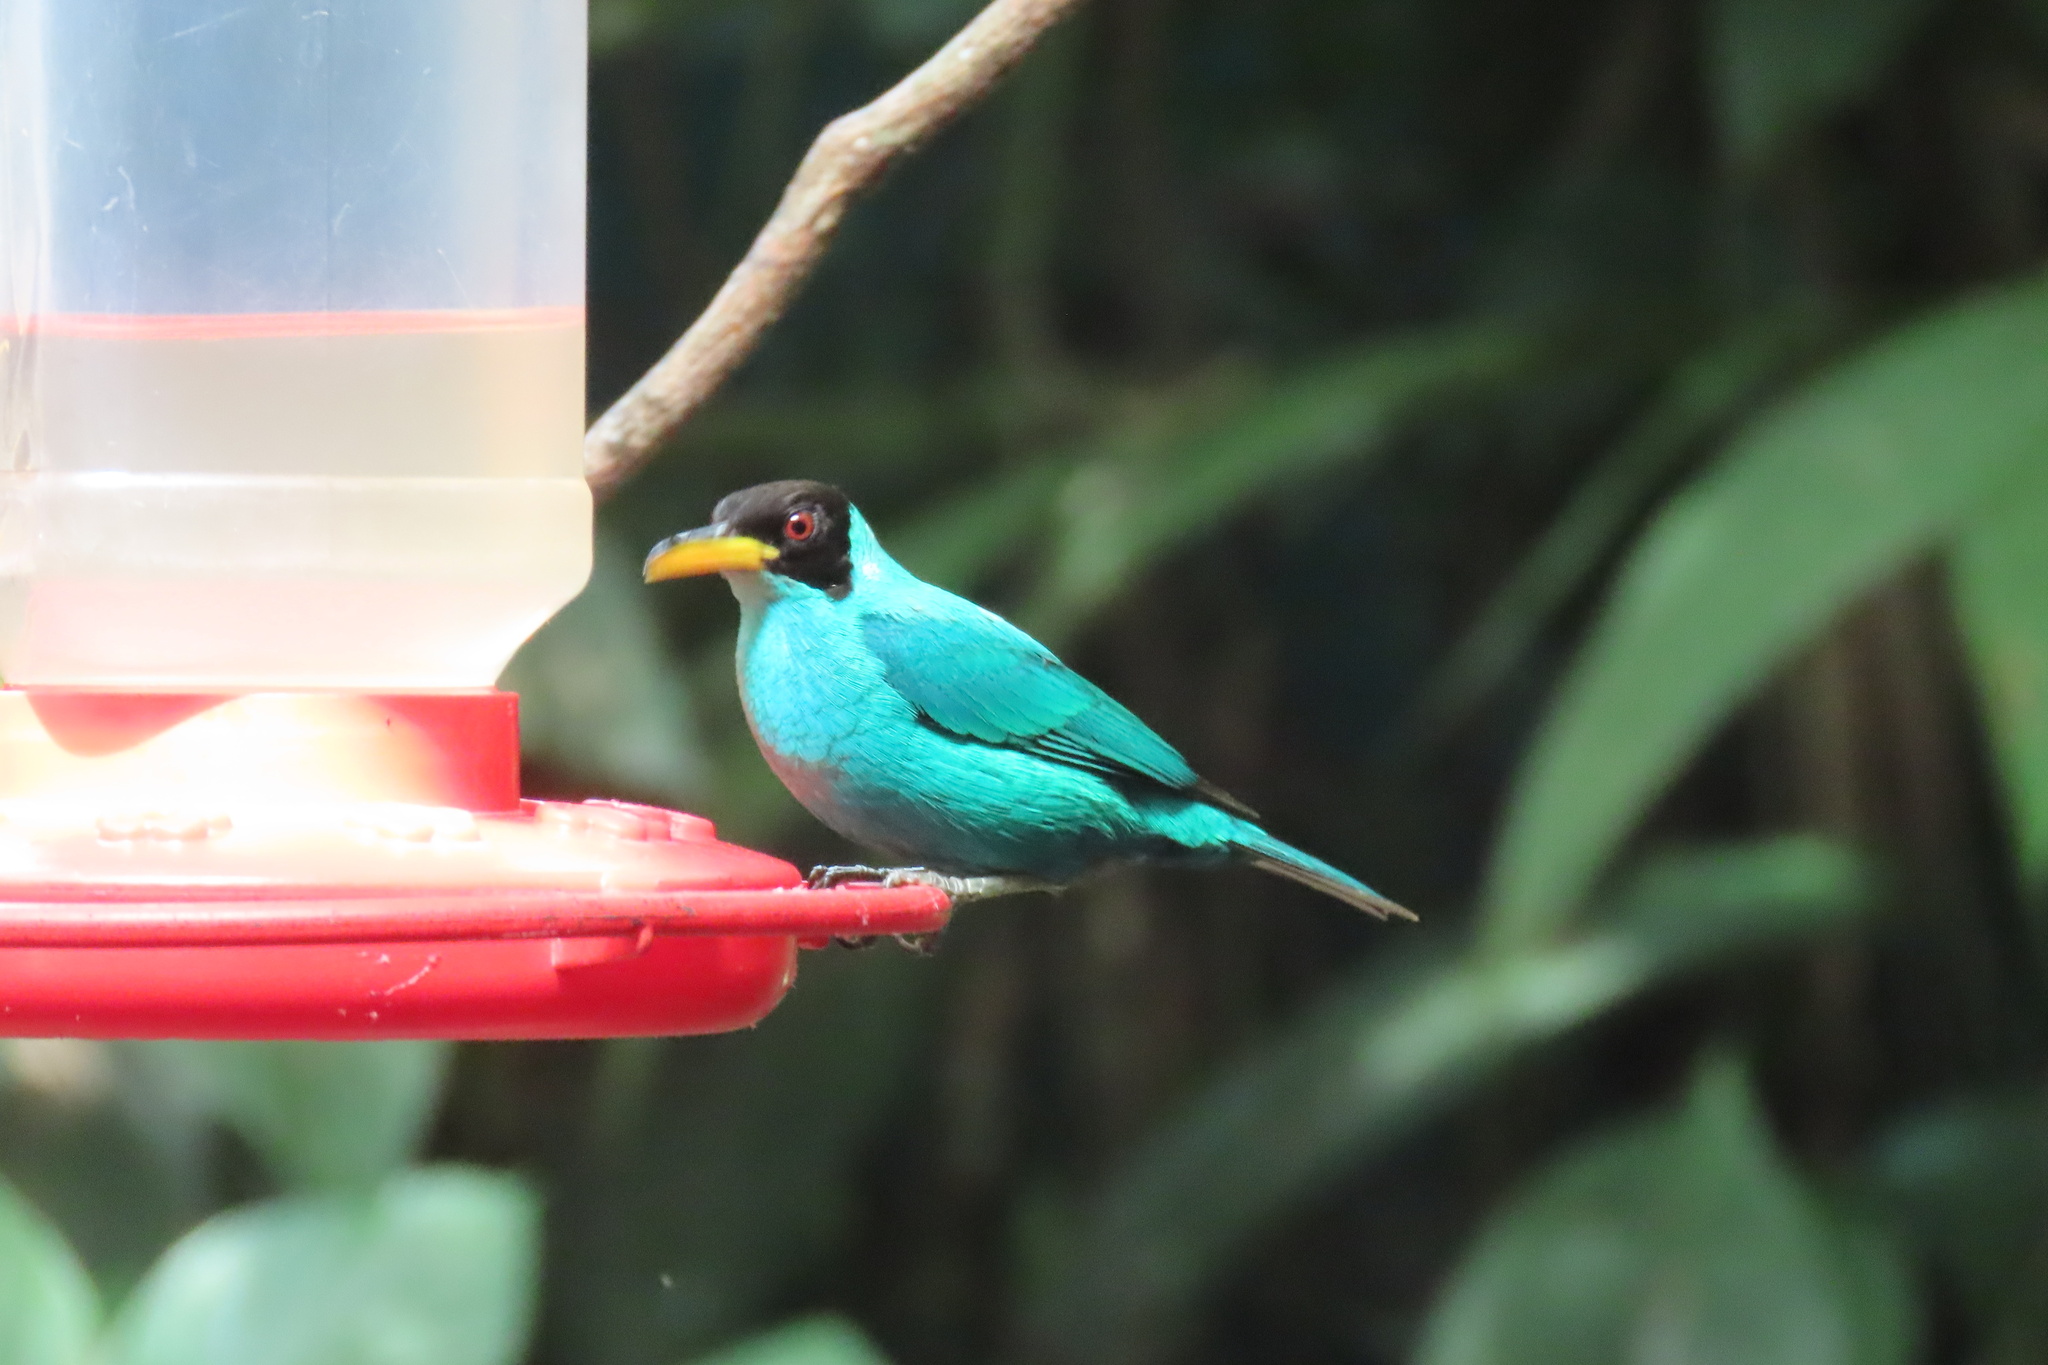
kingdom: Animalia
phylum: Chordata
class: Aves
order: Passeriformes
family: Thraupidae
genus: Chlorophanes
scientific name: Chlorophanes spiza
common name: Green honeycreeper
